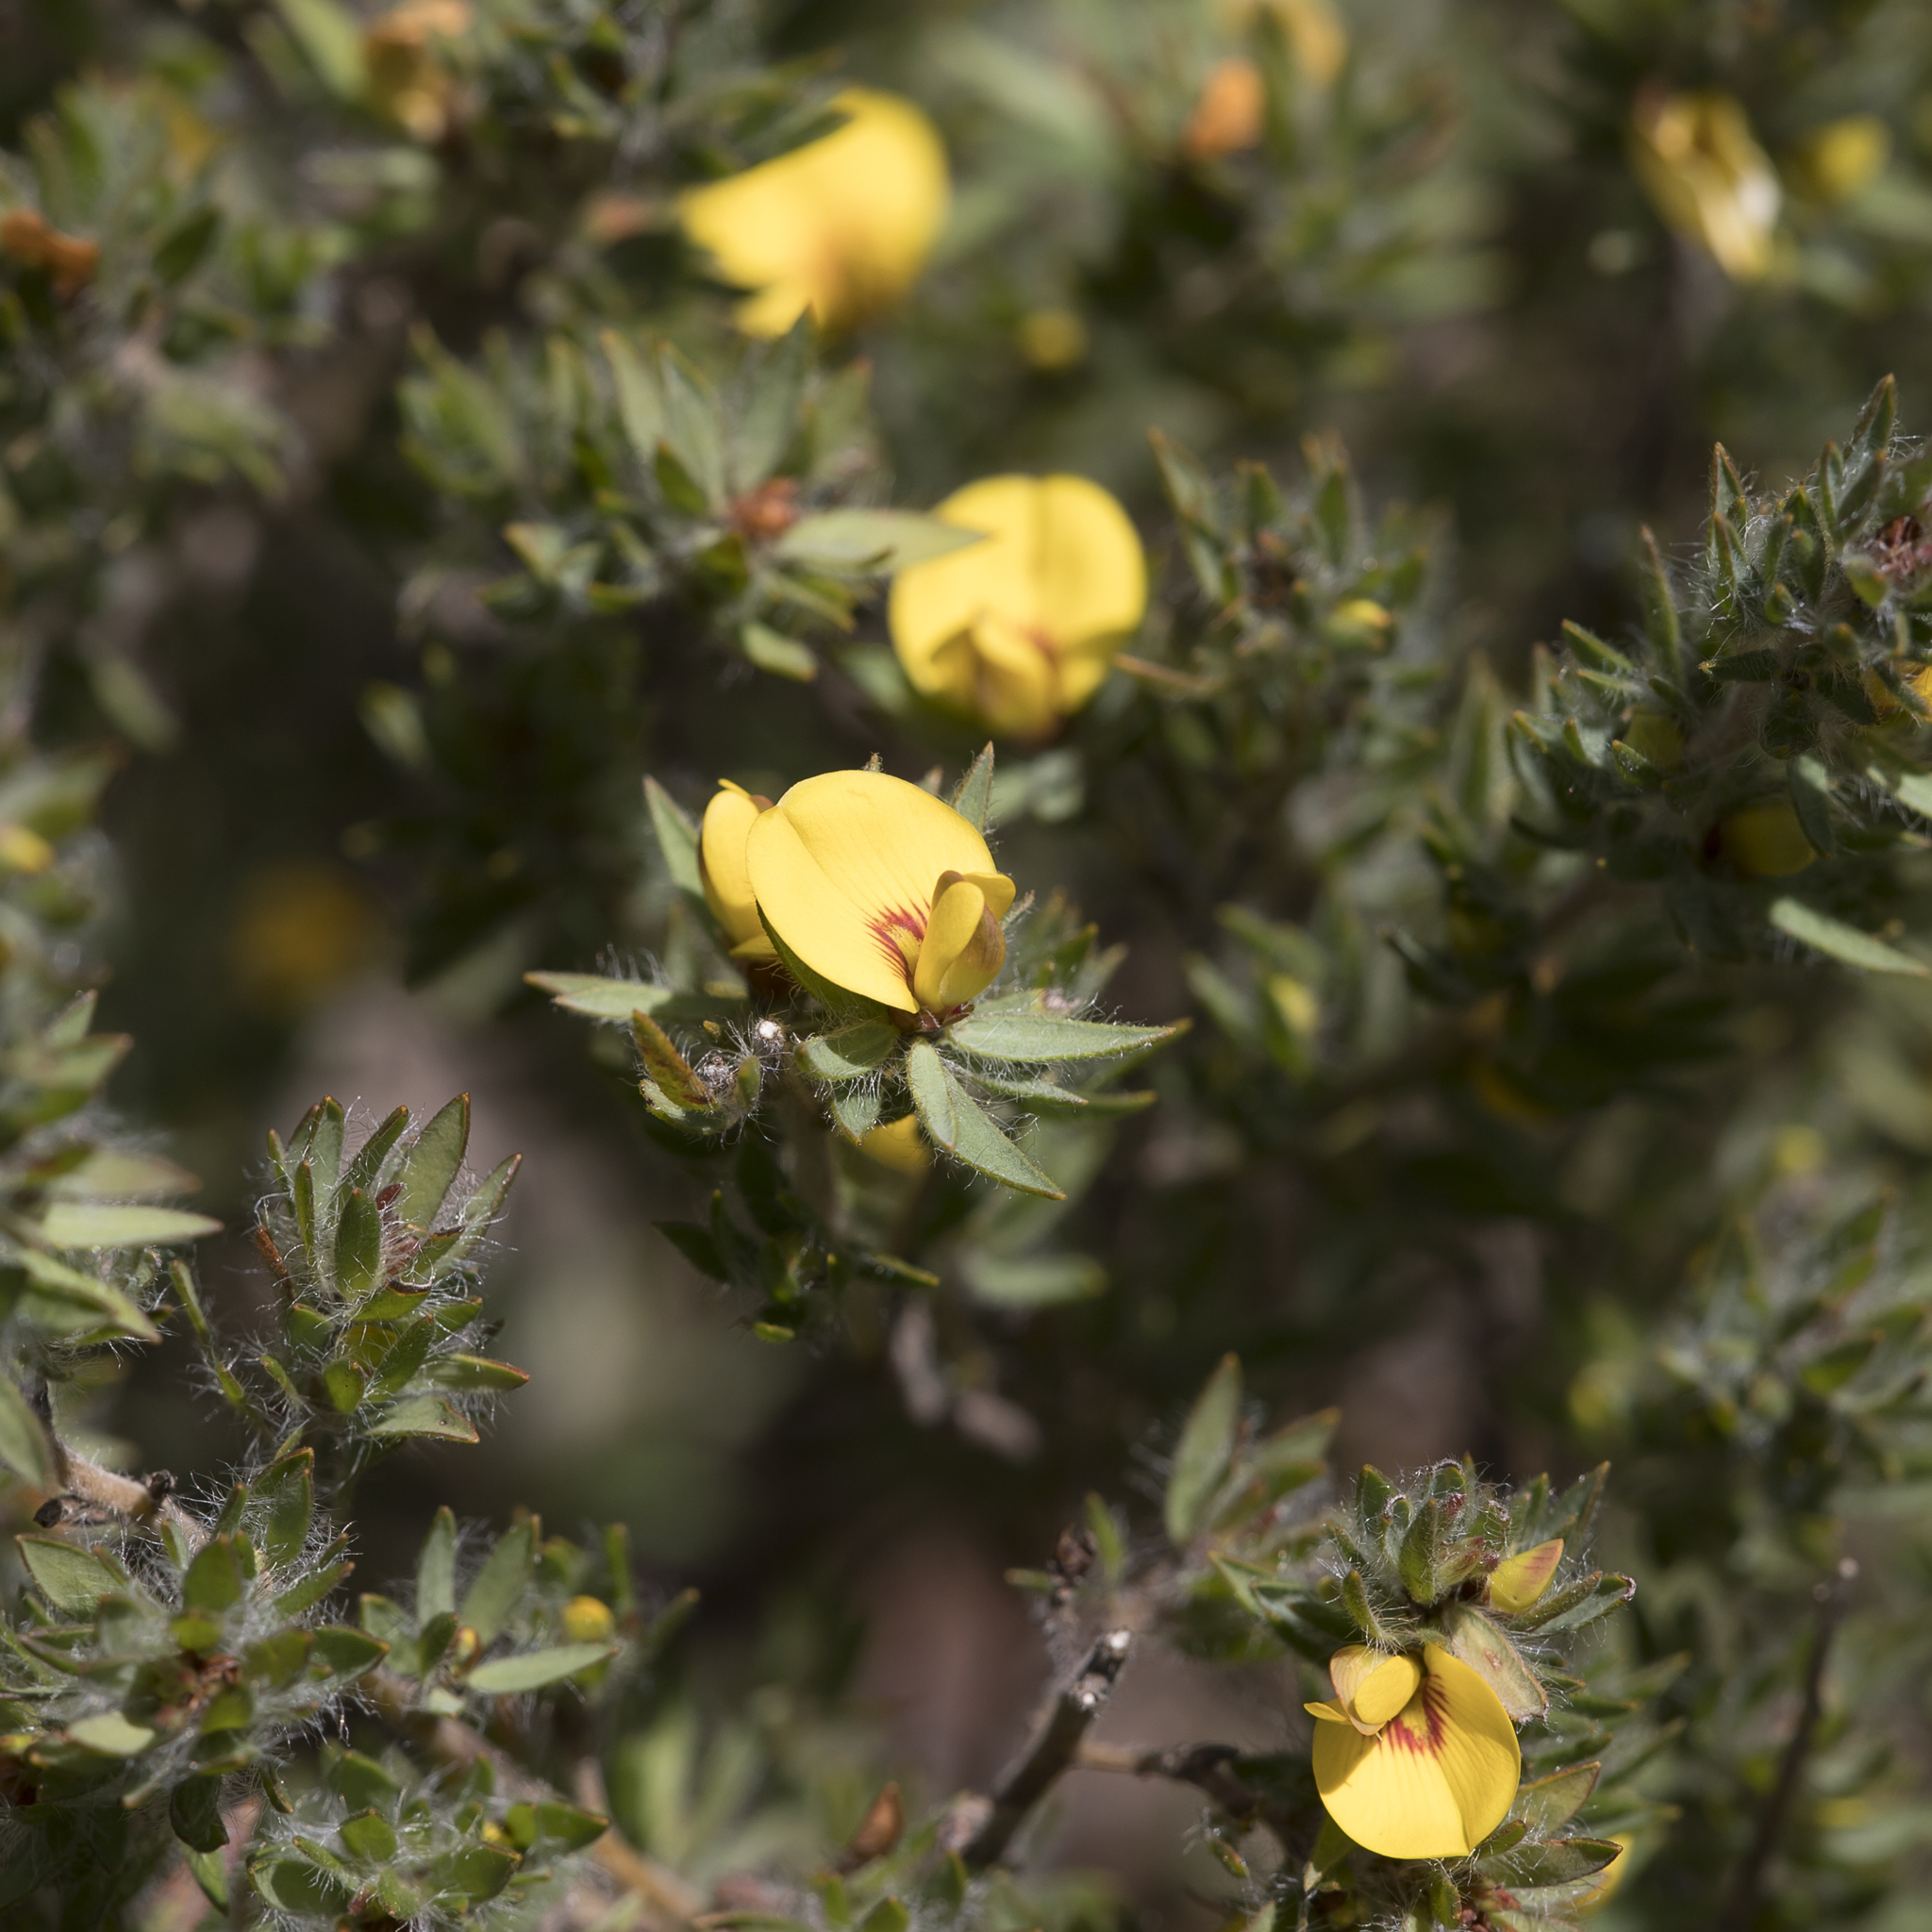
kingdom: Plantae
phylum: Tracheophyta
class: Magnoliopsida
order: Fabales
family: Fabaceae
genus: Pultenaea
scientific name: Pultenaea involucrata
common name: Mount lofty bush-pea
